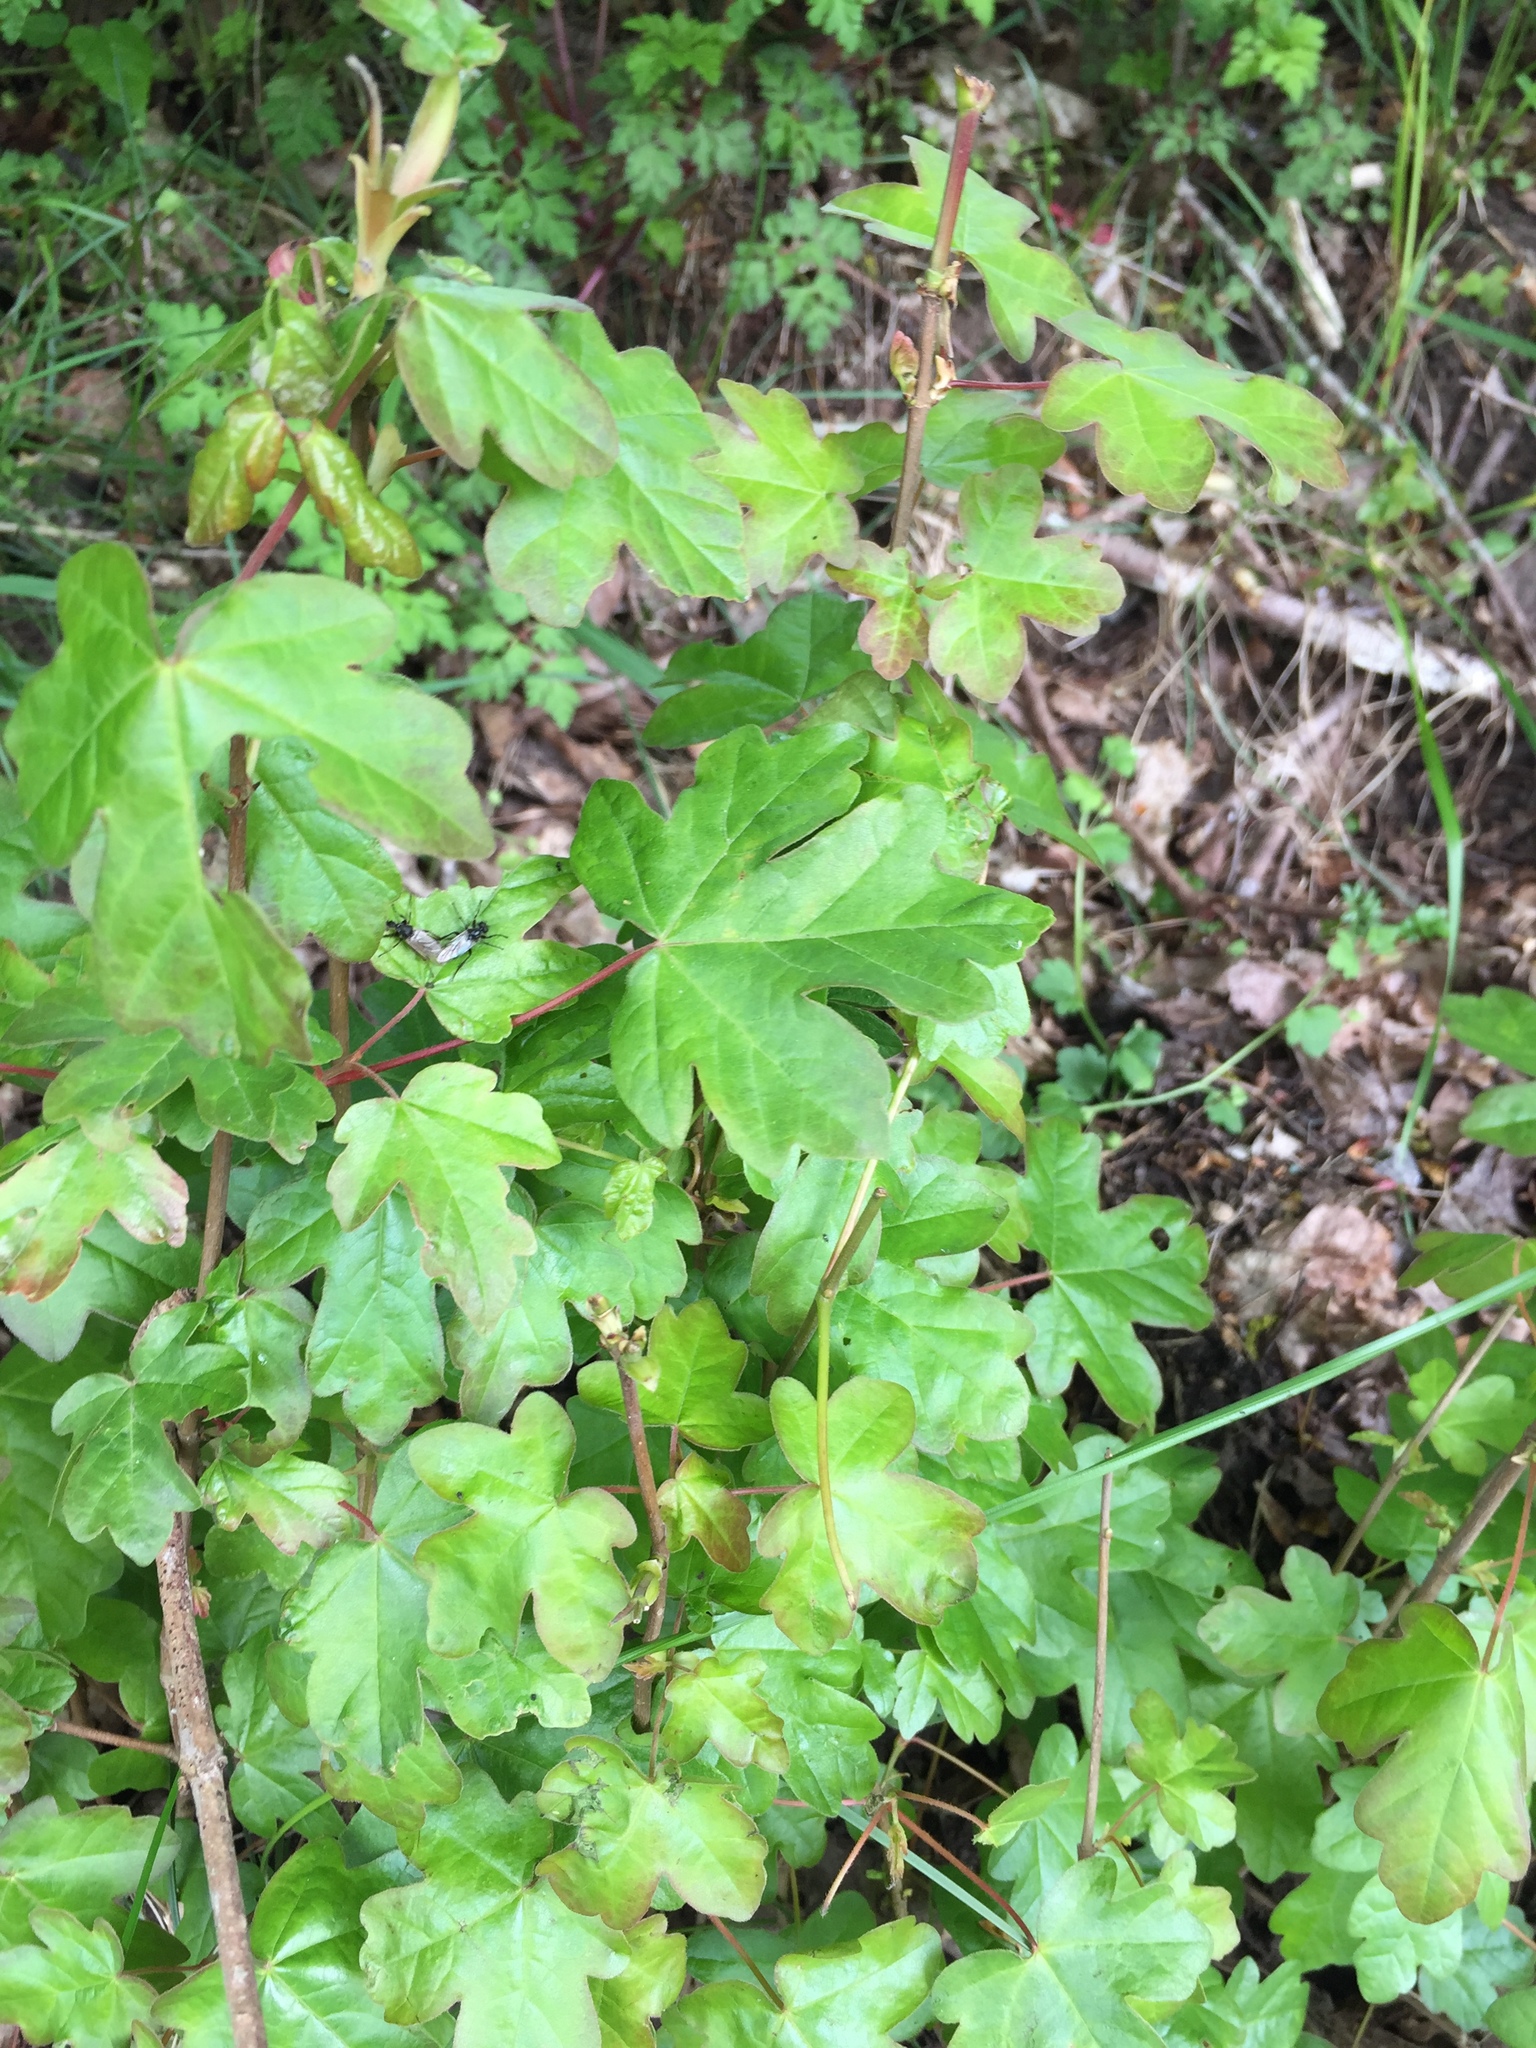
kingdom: Plantae
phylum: Tracheophyta
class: Magnoliopsida
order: Sapindales
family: Sapindaceae
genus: Acer
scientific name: Acer campestre
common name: Field maple
